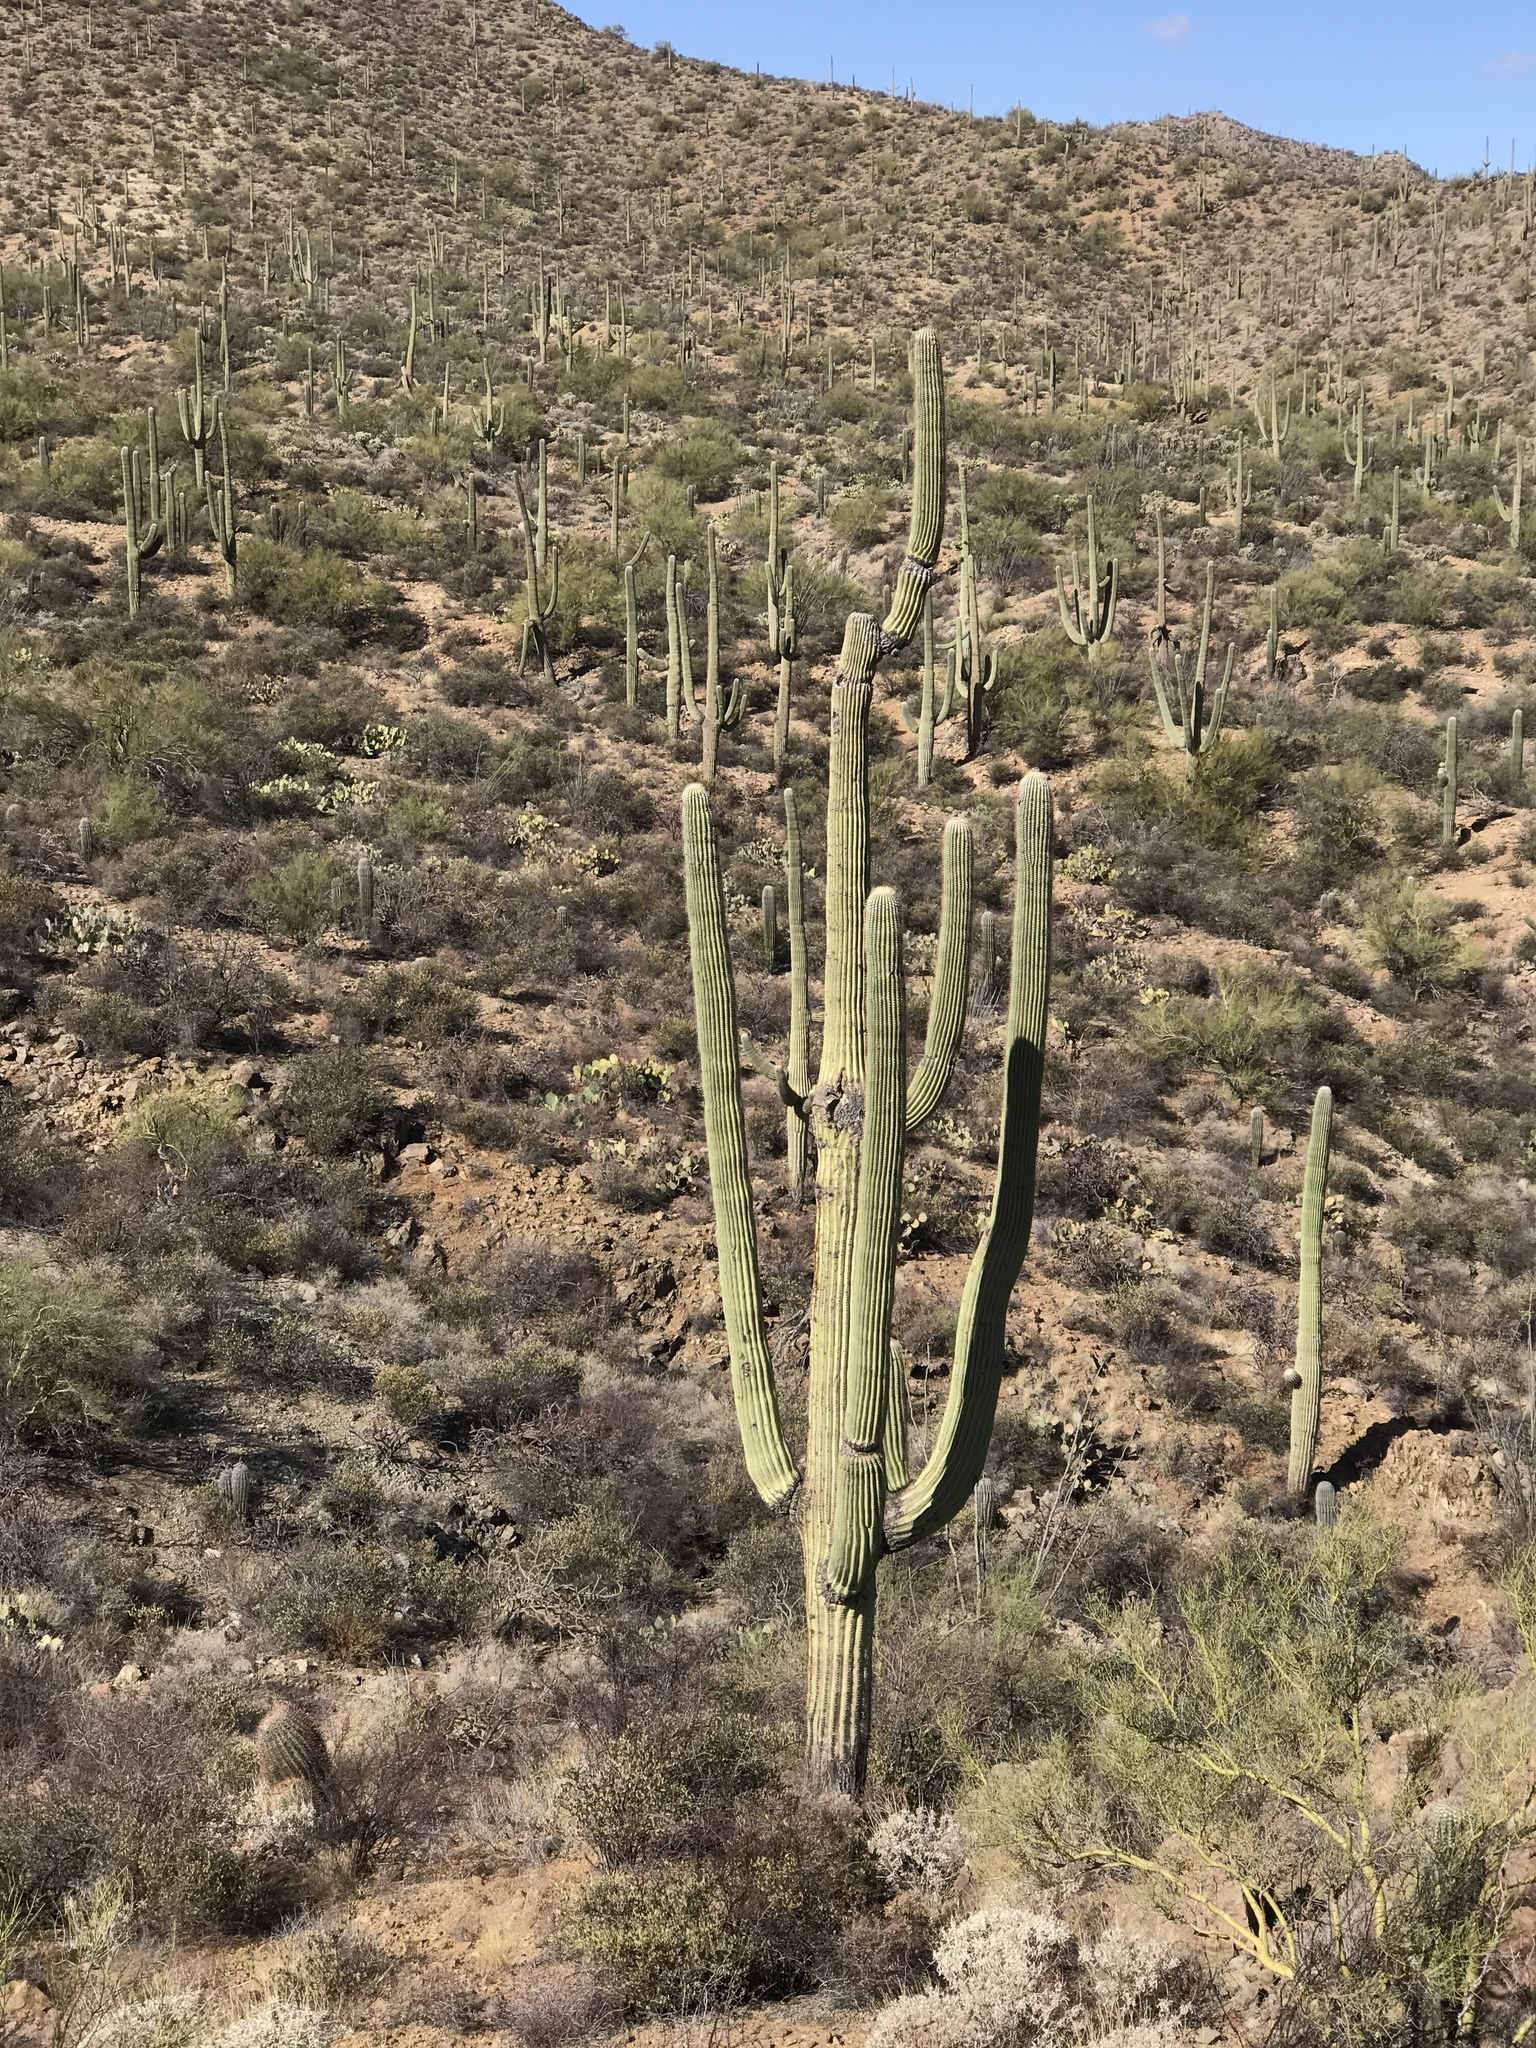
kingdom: Plantae
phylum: Tracheophyta
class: Magnoliopsida
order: Caryophyllales
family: Cactaceae
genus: Carnegiea
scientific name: Carnegiea gigantea
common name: Saguaro
